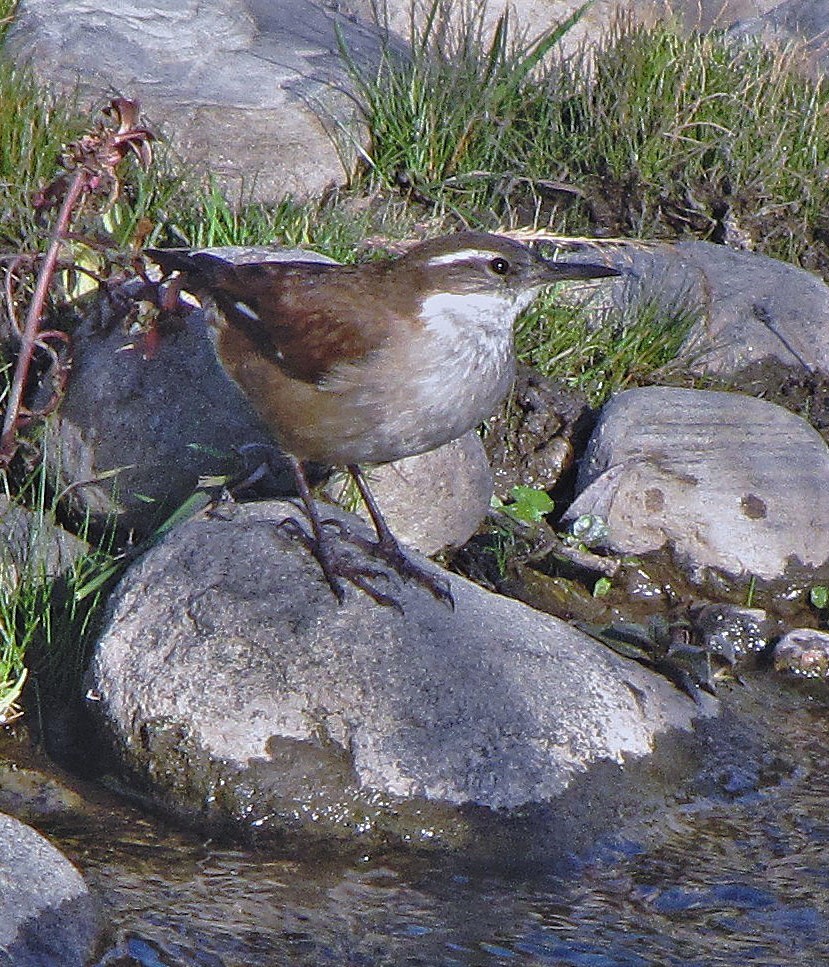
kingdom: Animalia
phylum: Chordata
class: Aves
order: Passeriformes
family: Furnariidae
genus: Cinclodes
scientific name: Cinclodes atacamensis
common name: White-winged cinclodes
